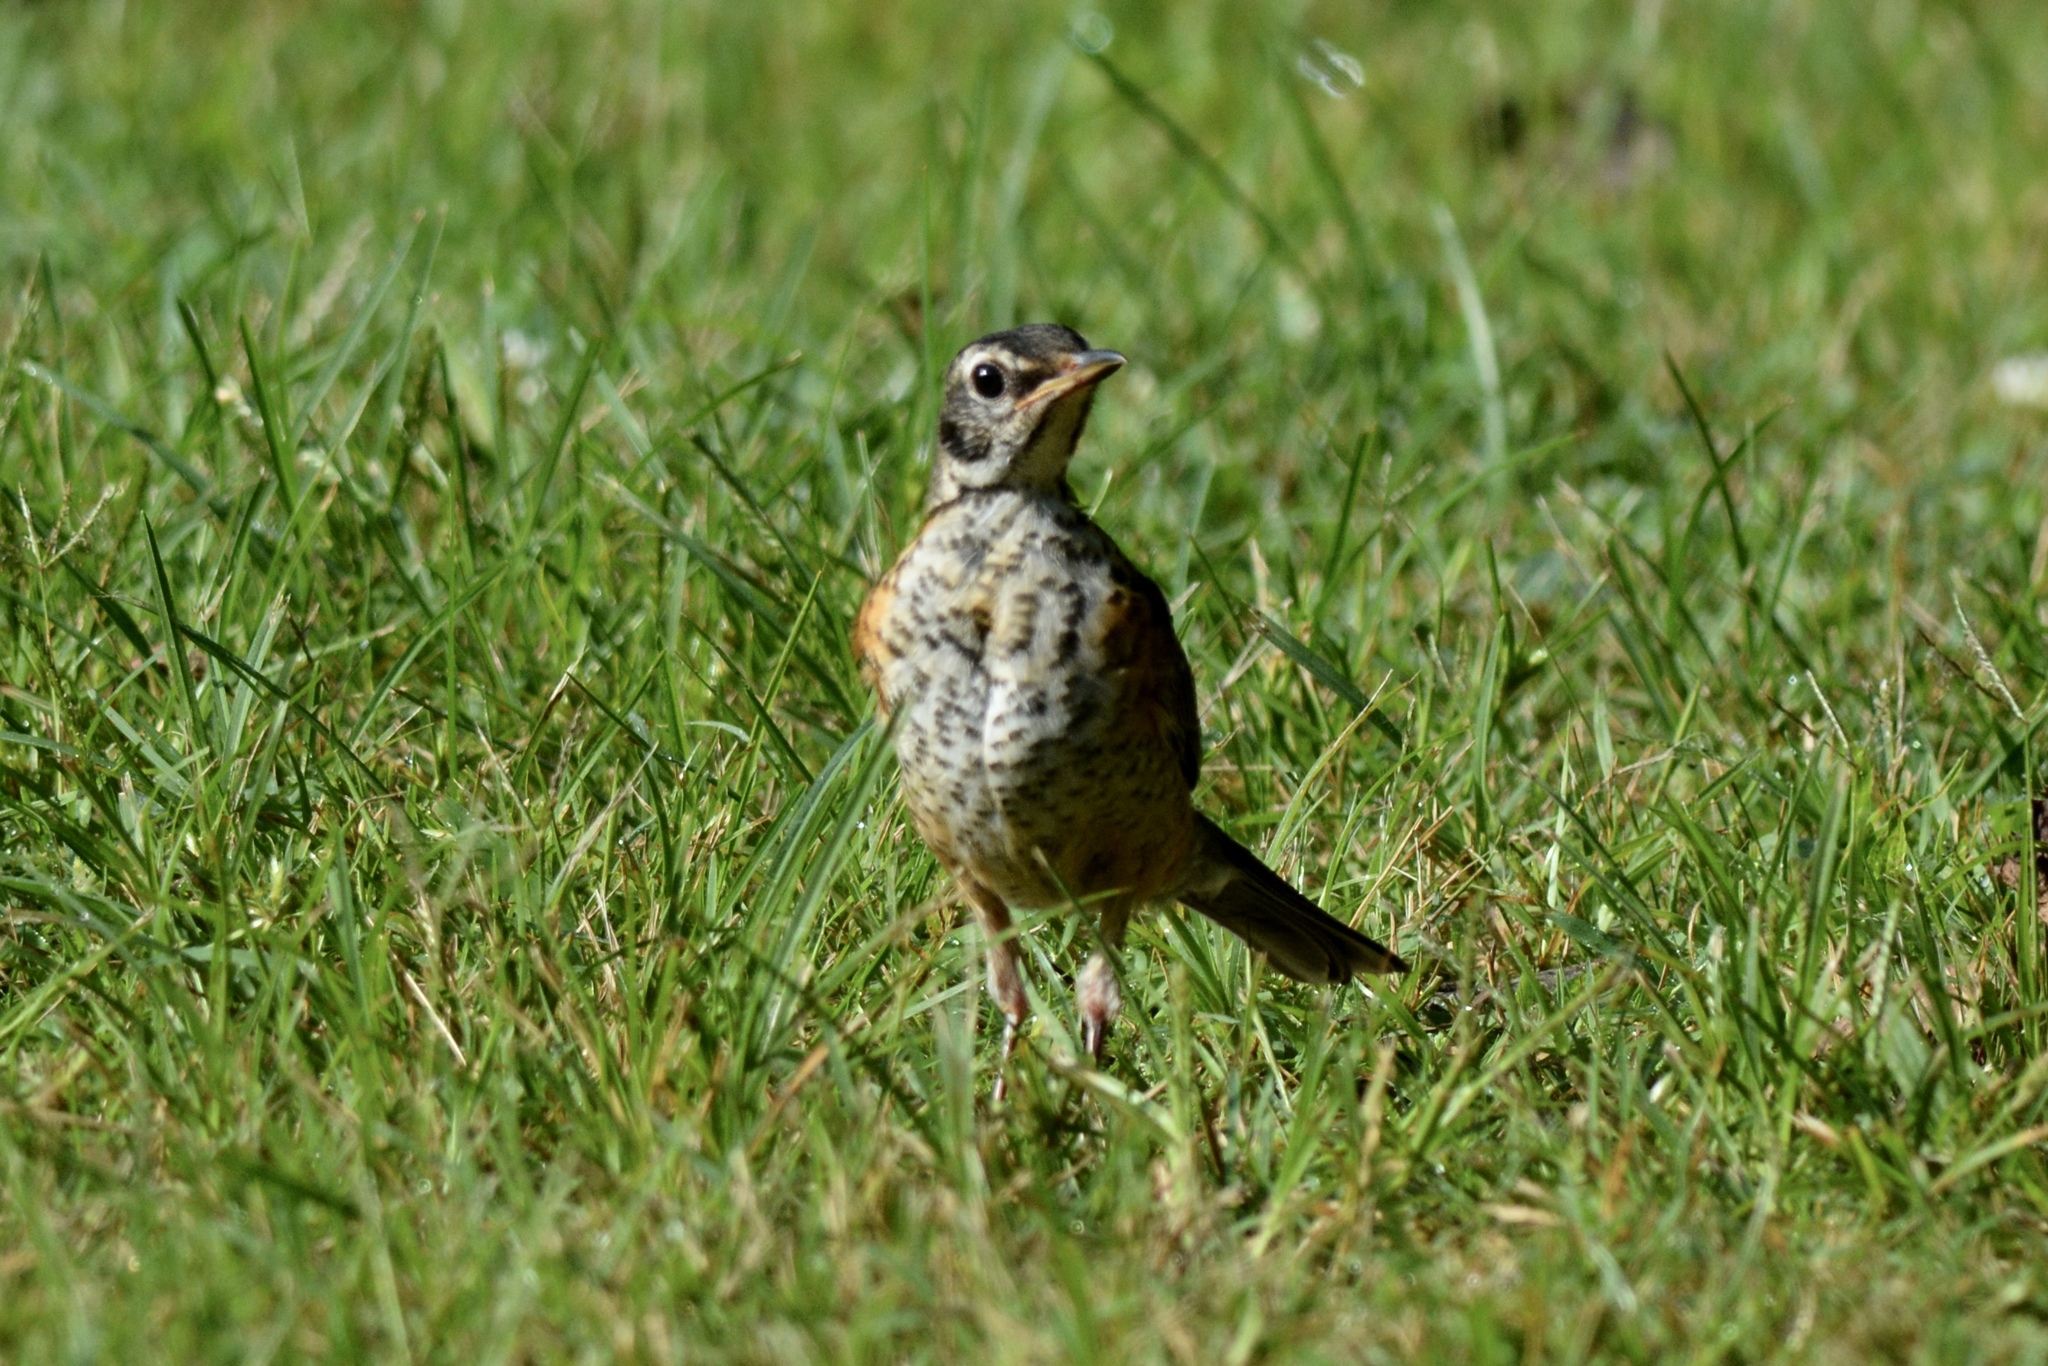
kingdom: Animalia
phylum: Chordata
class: Aves
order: Passeriformes
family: Turdidae
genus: Turdus
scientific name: Turdus migratorius
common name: American robin
